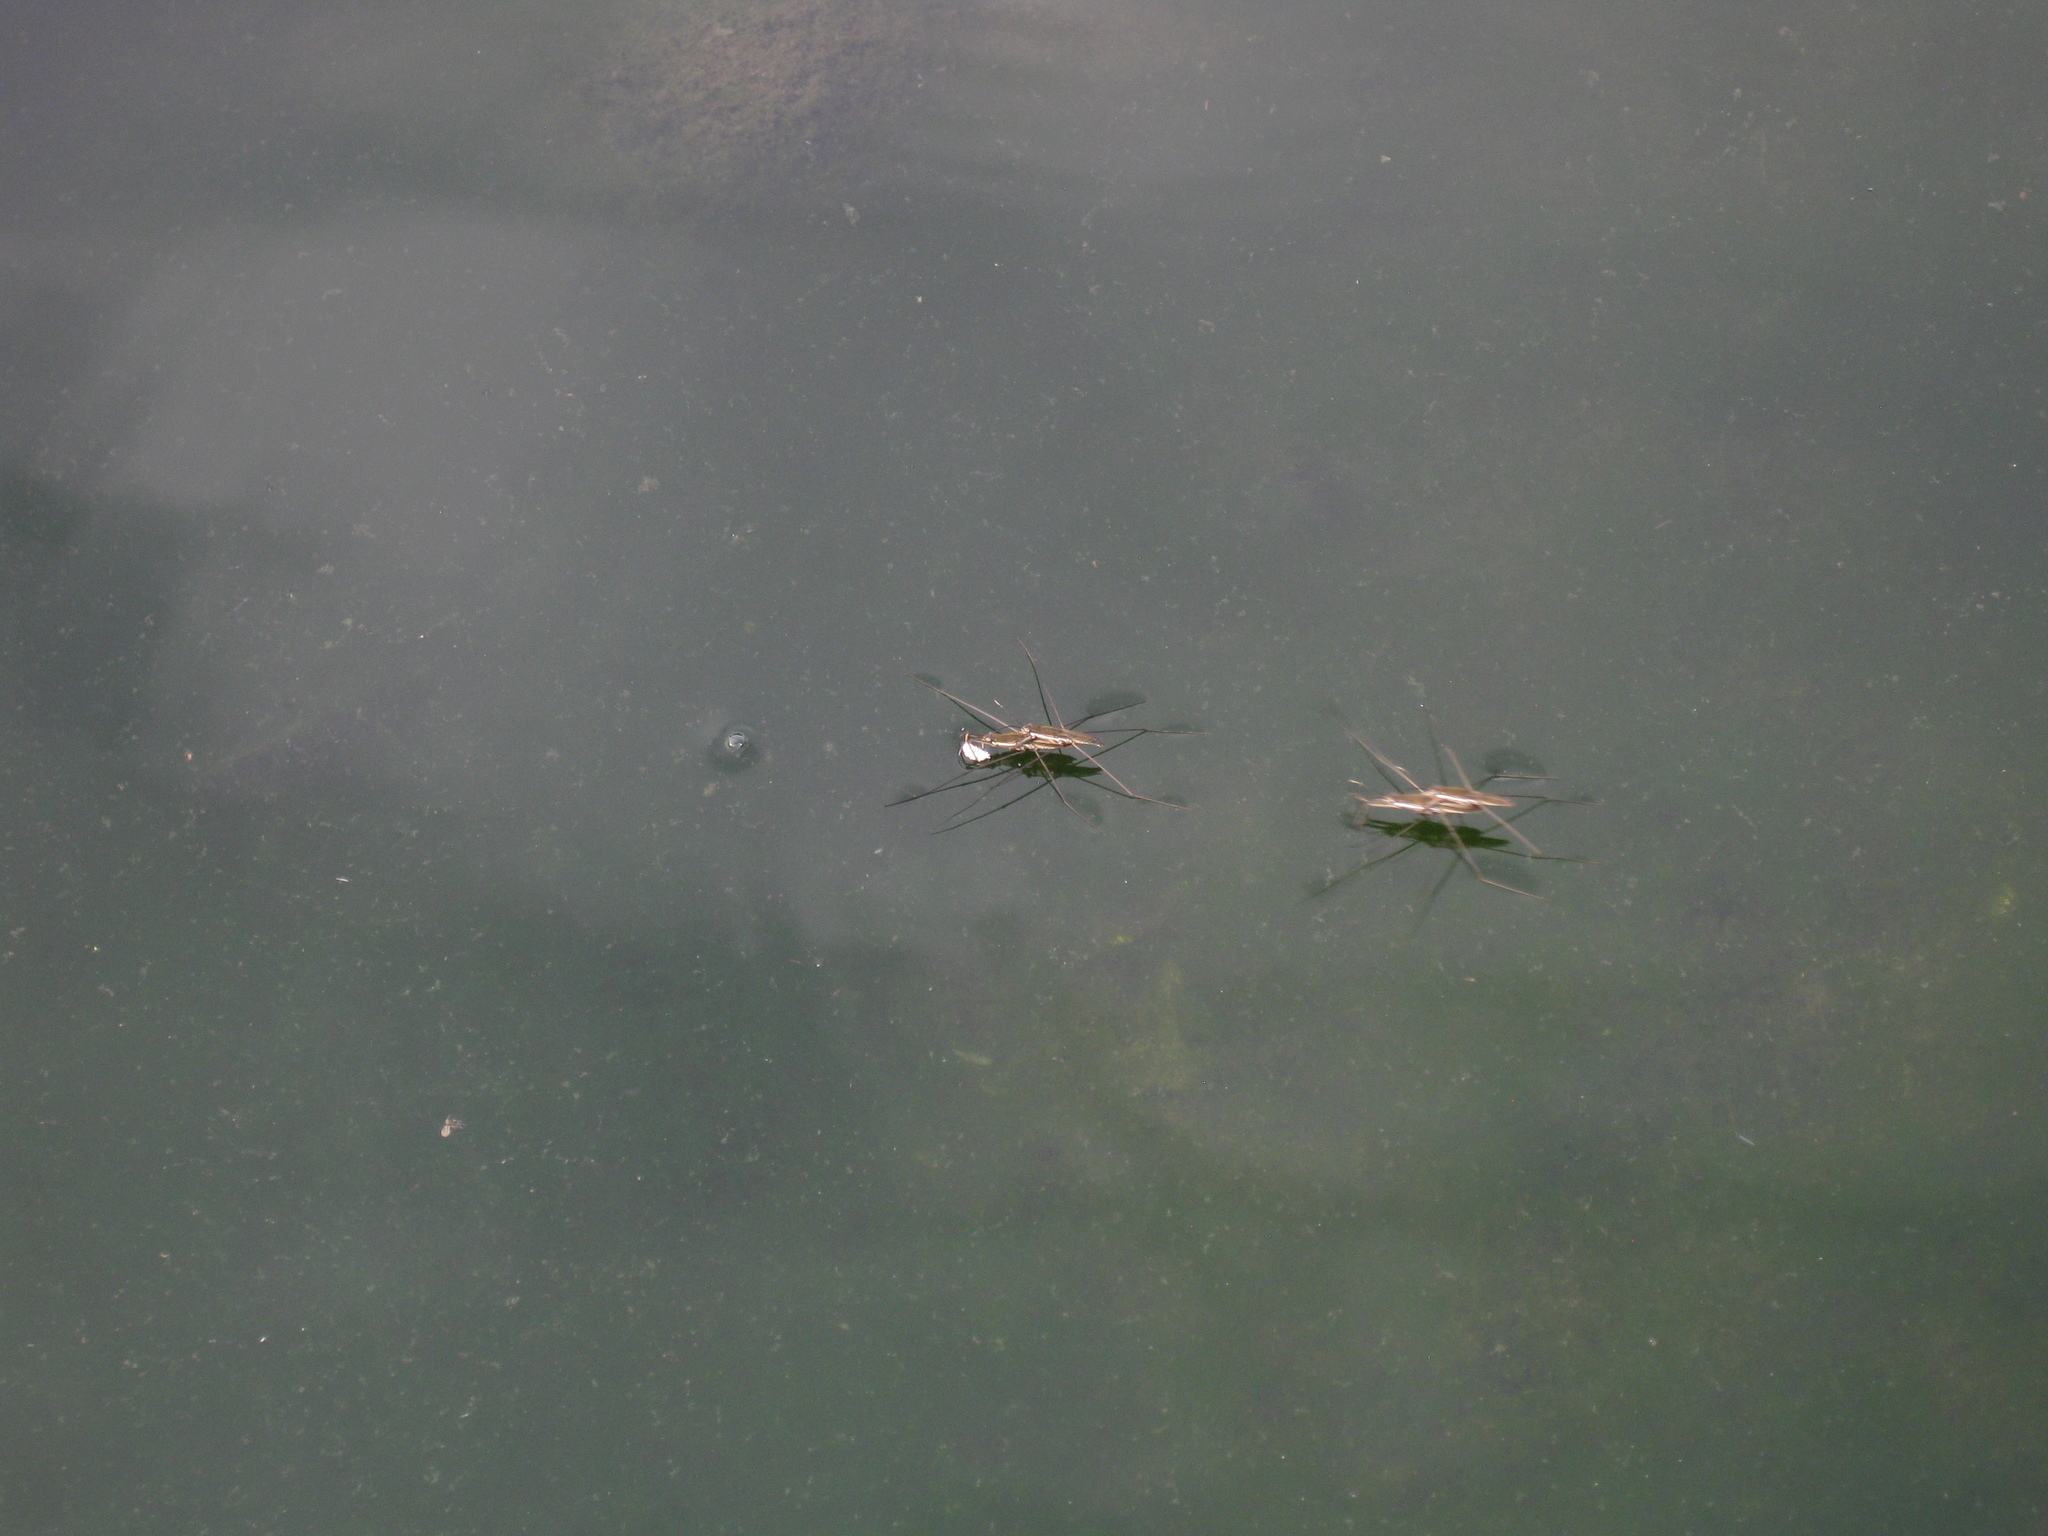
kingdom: Animalia
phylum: Arthropoda
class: Insecta
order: Hemiptera
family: Gerridae
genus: Aquarius
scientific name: Aquarius paludum
